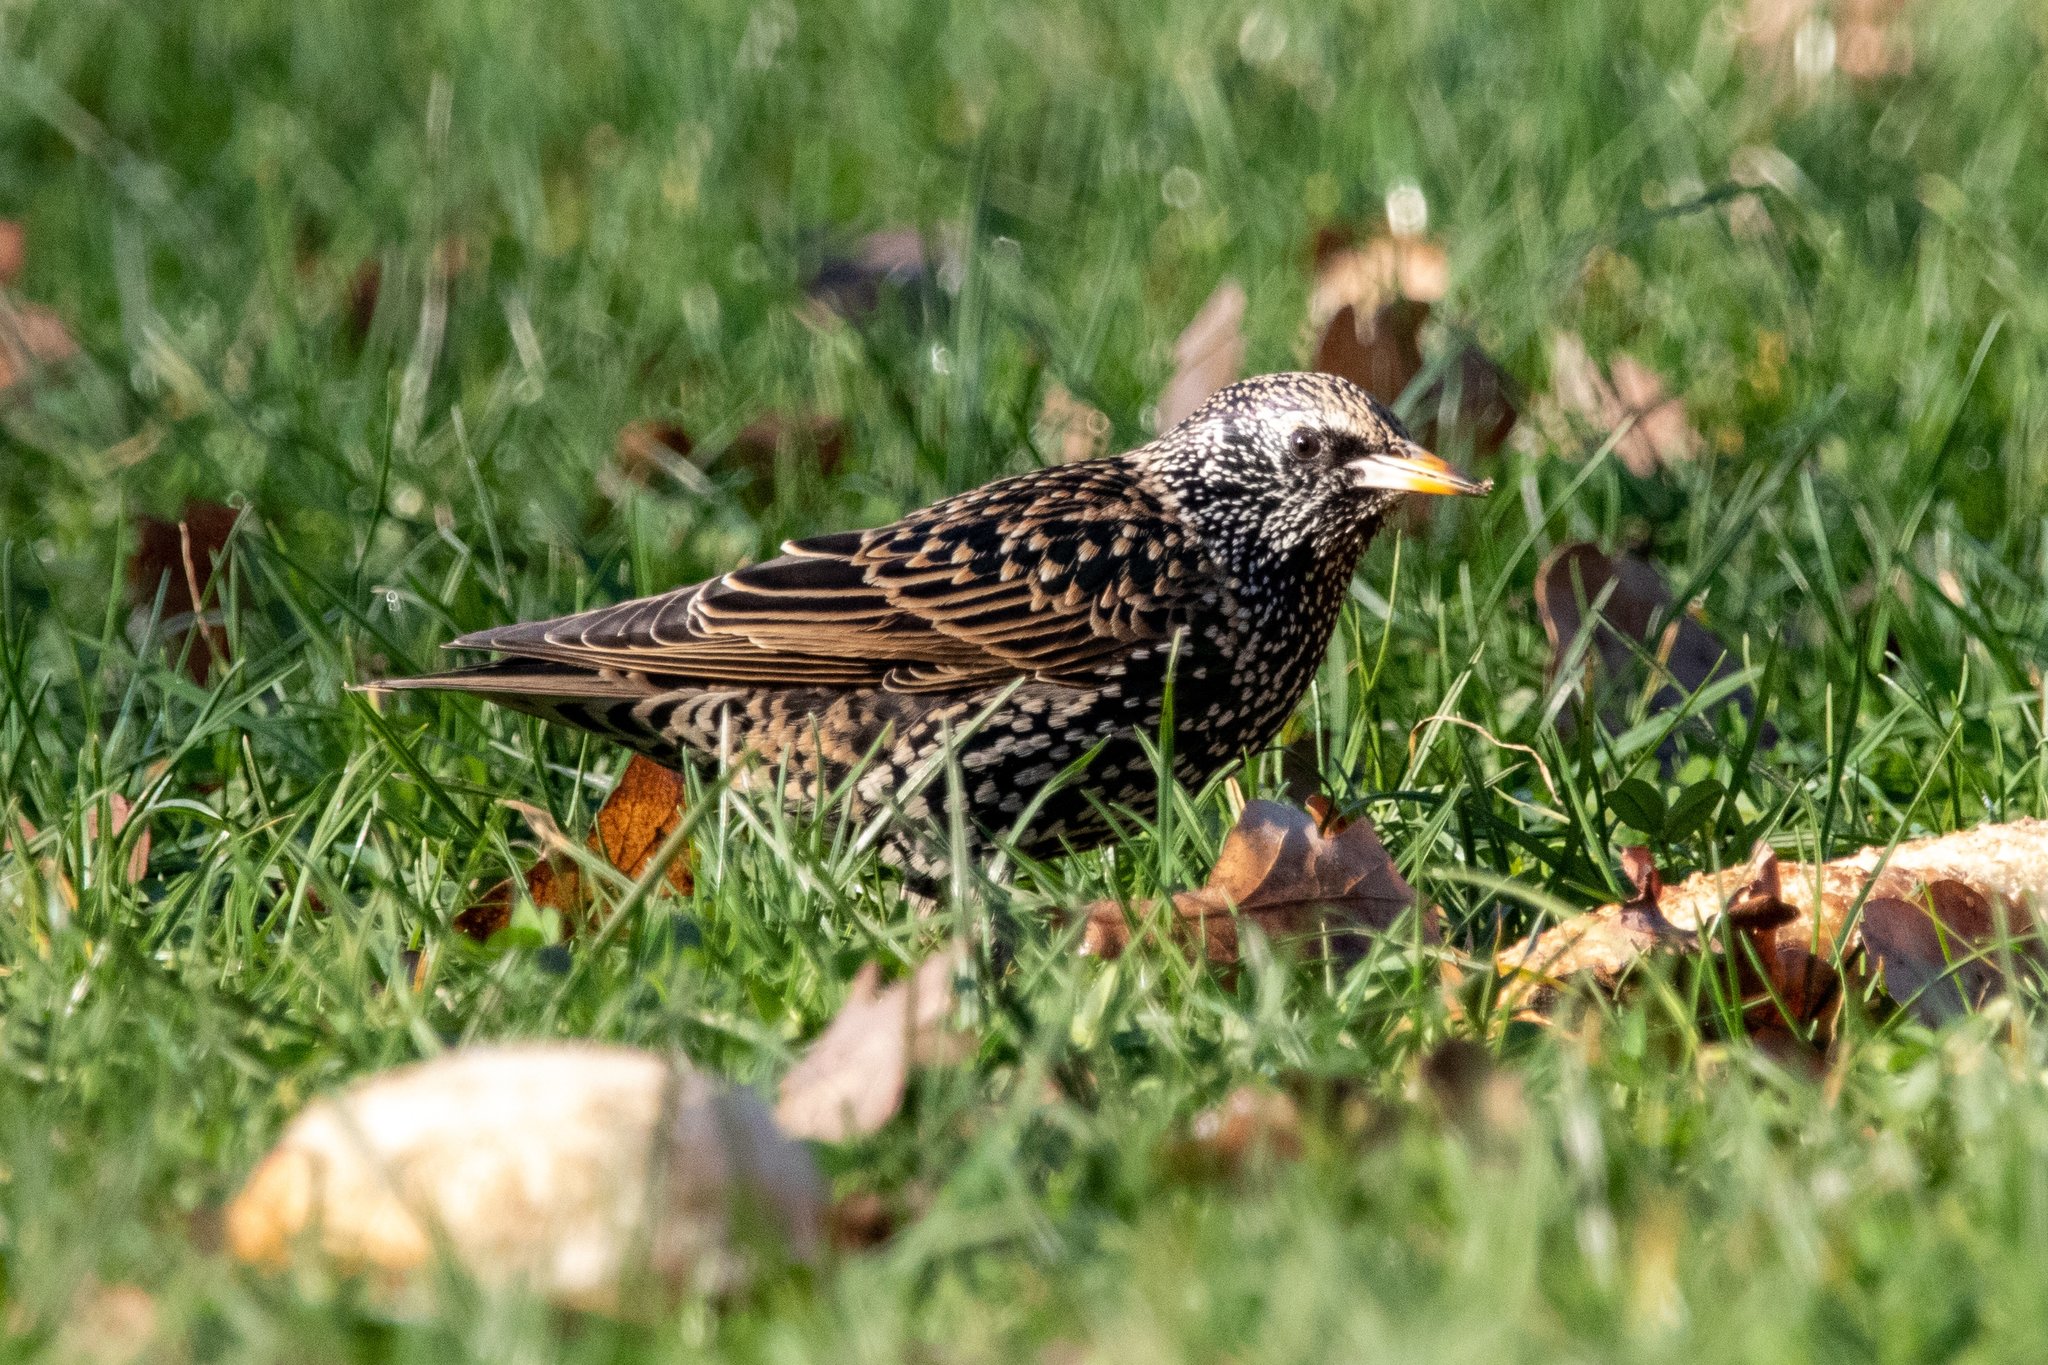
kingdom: Animalia
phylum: Chordata
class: Aves
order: Passeriformes
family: Sturnidae
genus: Sturnus
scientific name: Sturnus vulgaris
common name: Common starling
